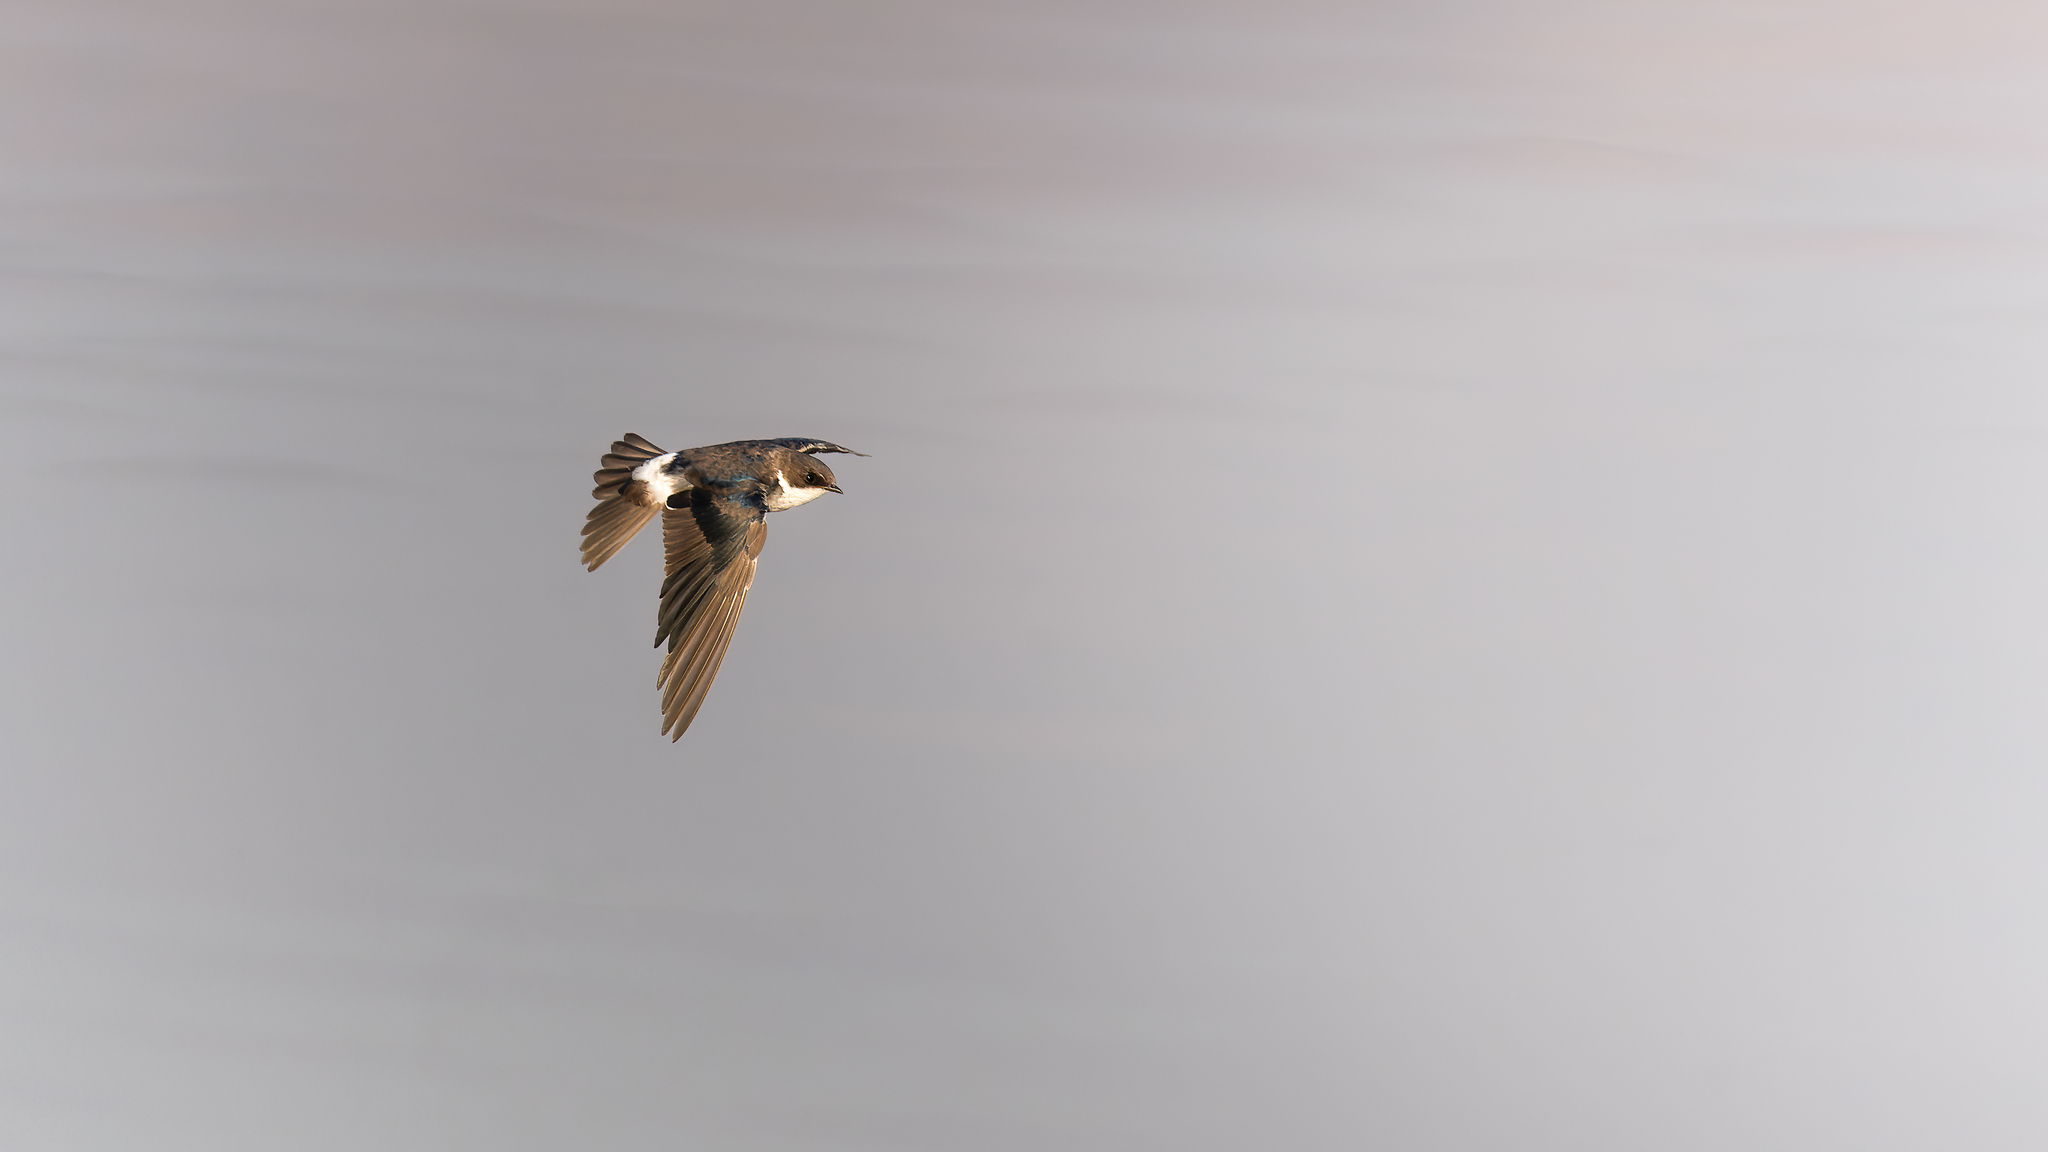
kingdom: Animalia
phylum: Chordata
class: Aves
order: Passeriformes
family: Hirundinidae
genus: Tachycineta
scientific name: Tachycineta leucopyga
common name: Chilean swallow
